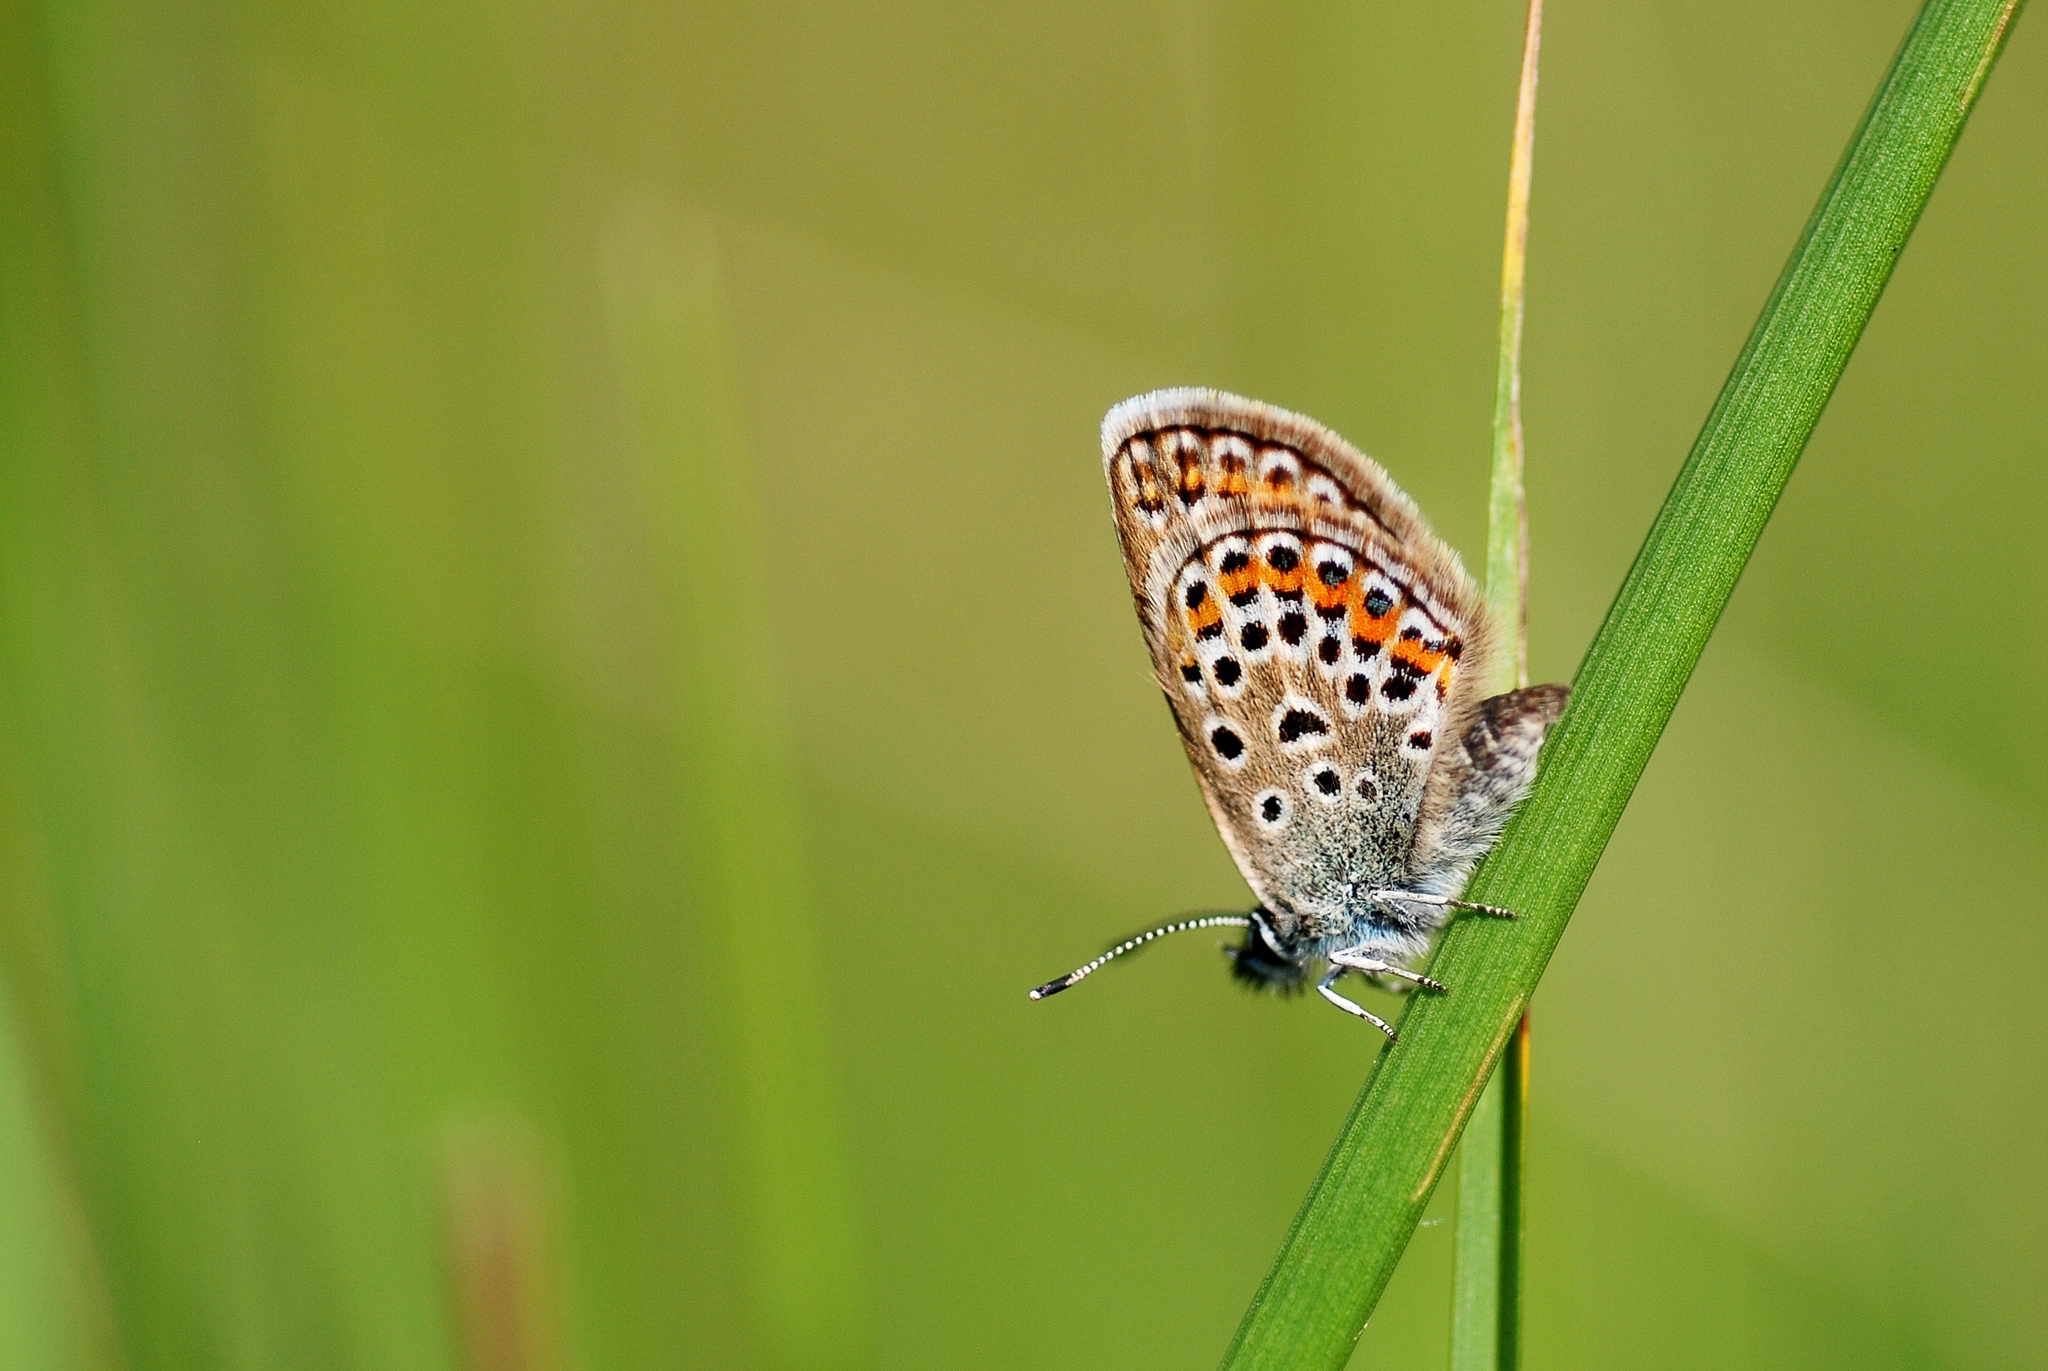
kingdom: Animalia
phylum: Arthropoda
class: Insecta
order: Lepidoptera
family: Lycaenidae
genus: Plebejus
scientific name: Plebejus argus
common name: Silver-studded blue
